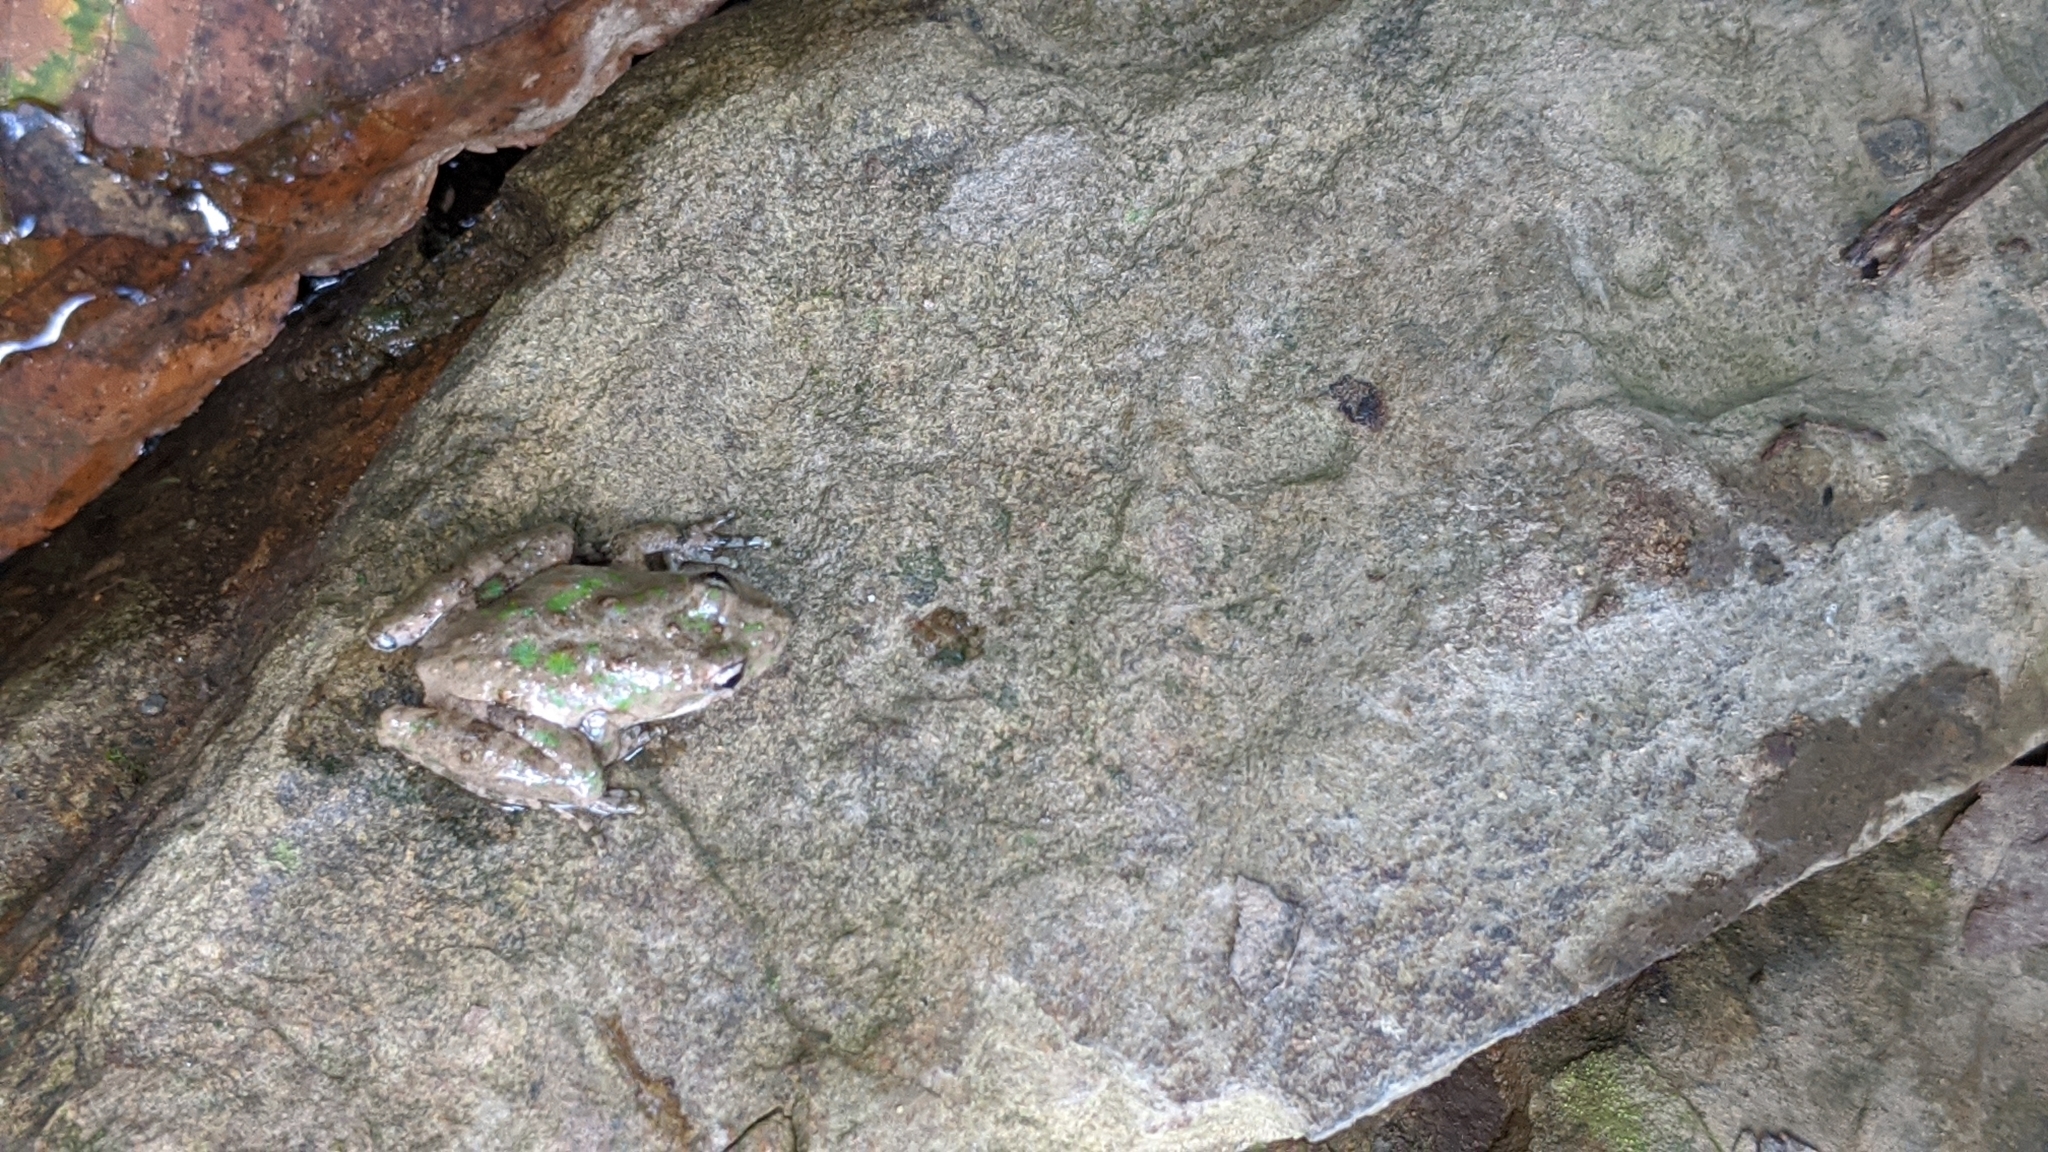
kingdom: Animalia
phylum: Chordata
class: Amphibia
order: Anura
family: Hylidae
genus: Acris
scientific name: Acris crepitans
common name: Northern cricket frog
